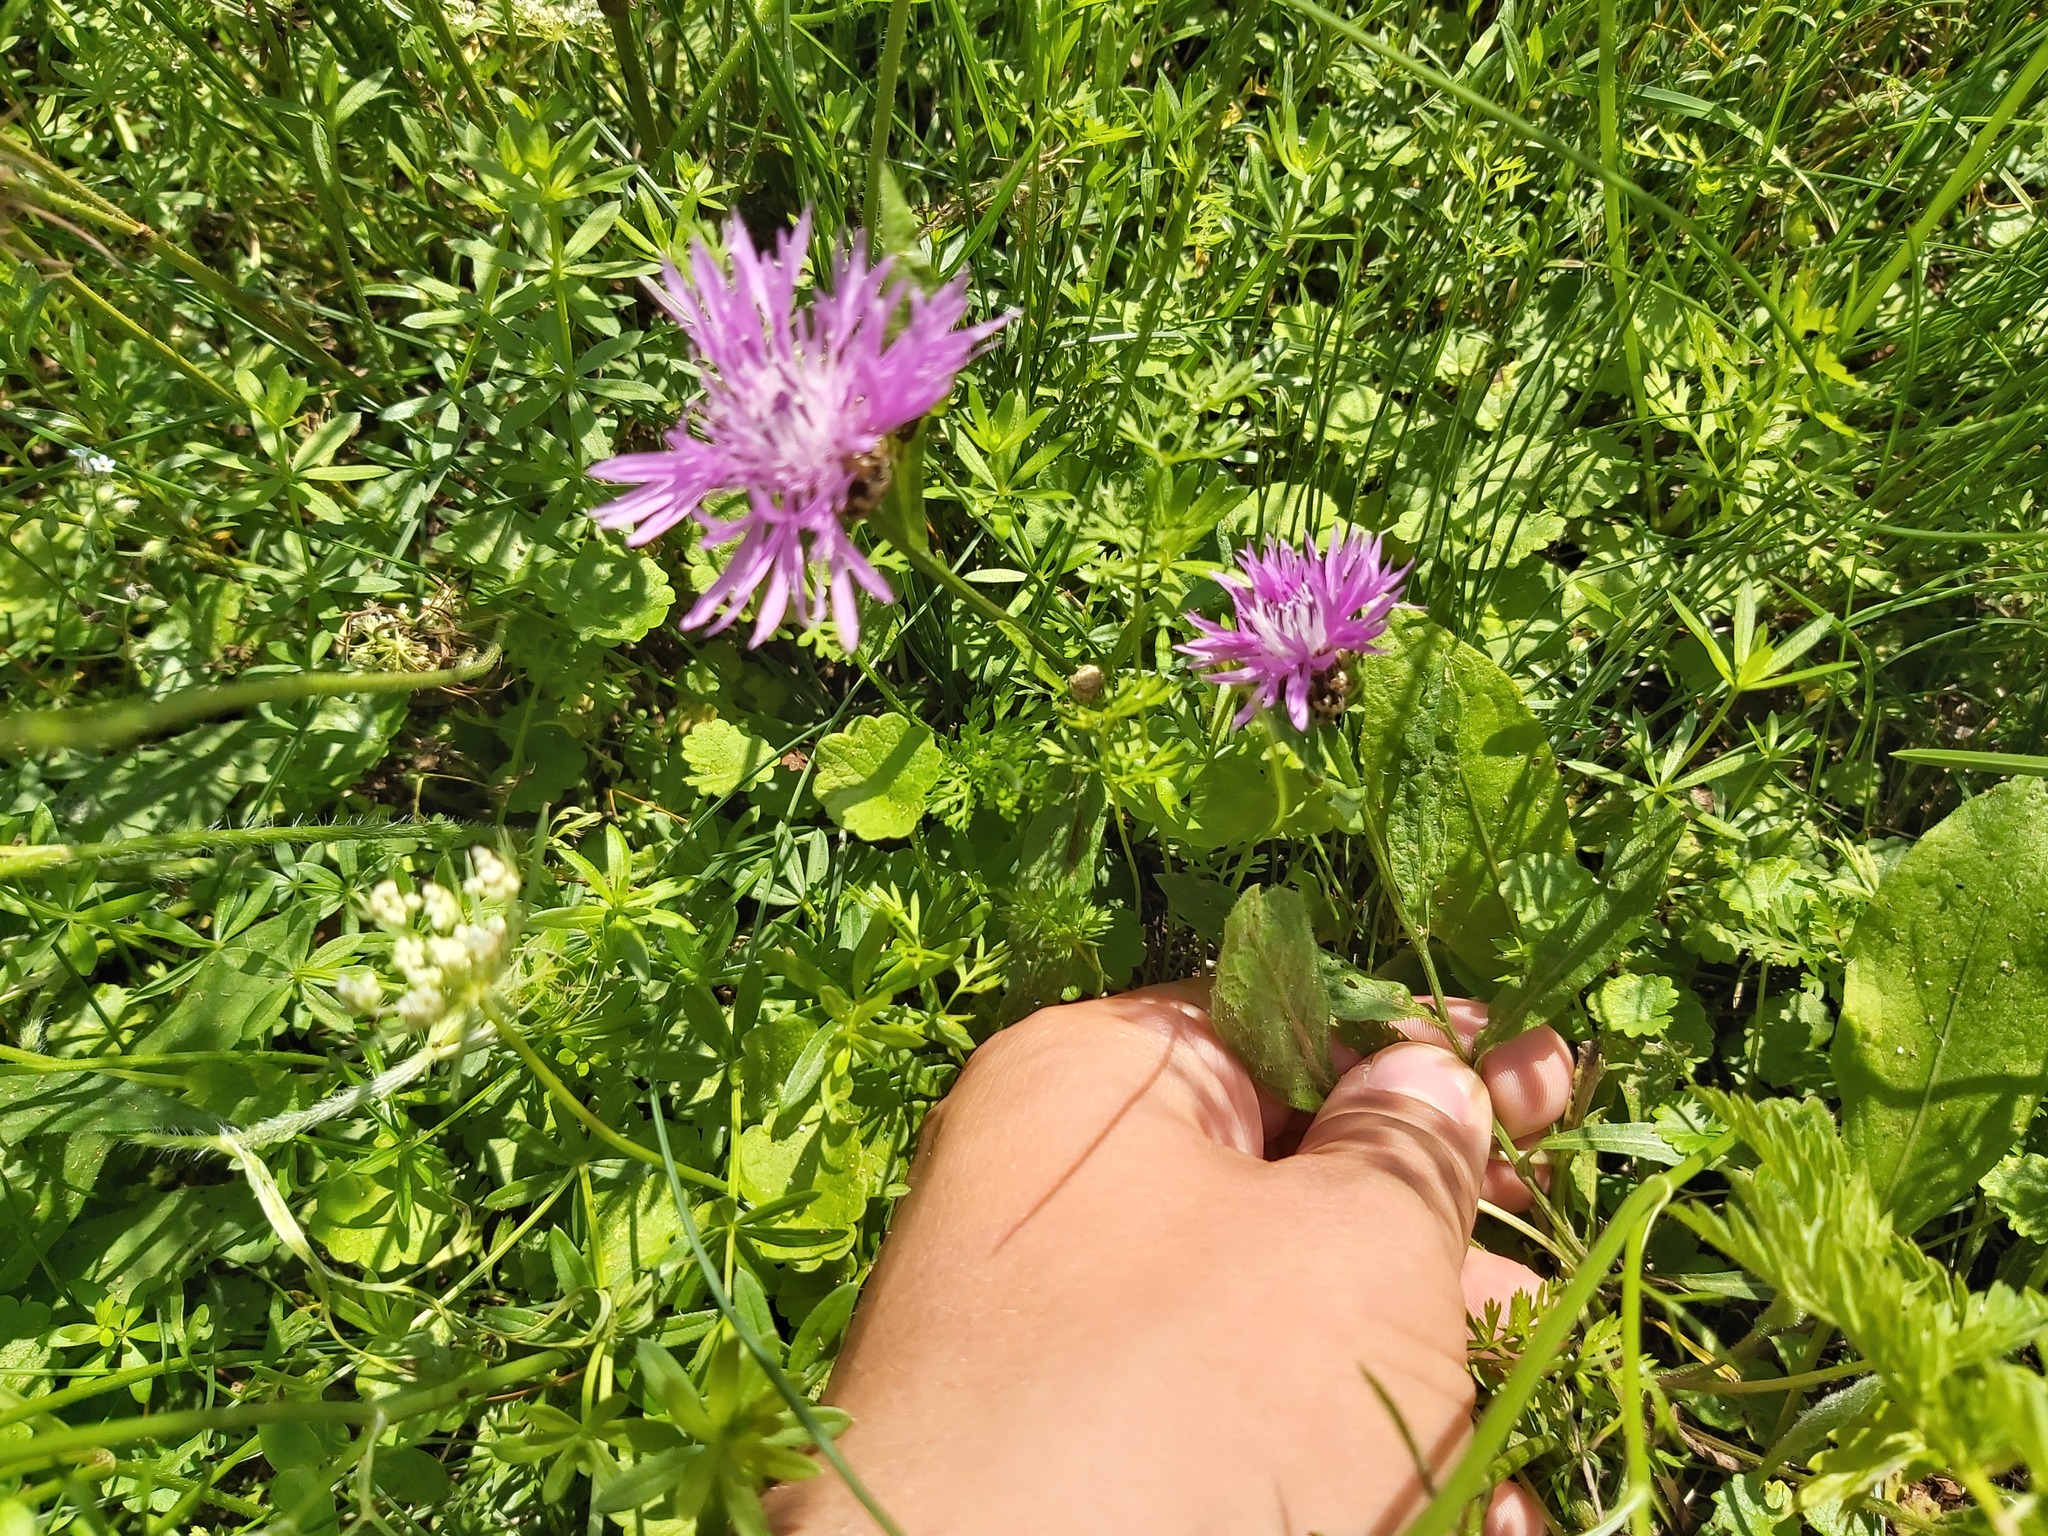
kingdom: Plantae
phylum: Tracheophyta
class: Magnoliopsida
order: Asterales
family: Asteraceae
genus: Centaurea
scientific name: Centaurea jacea
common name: Brown knapweed
